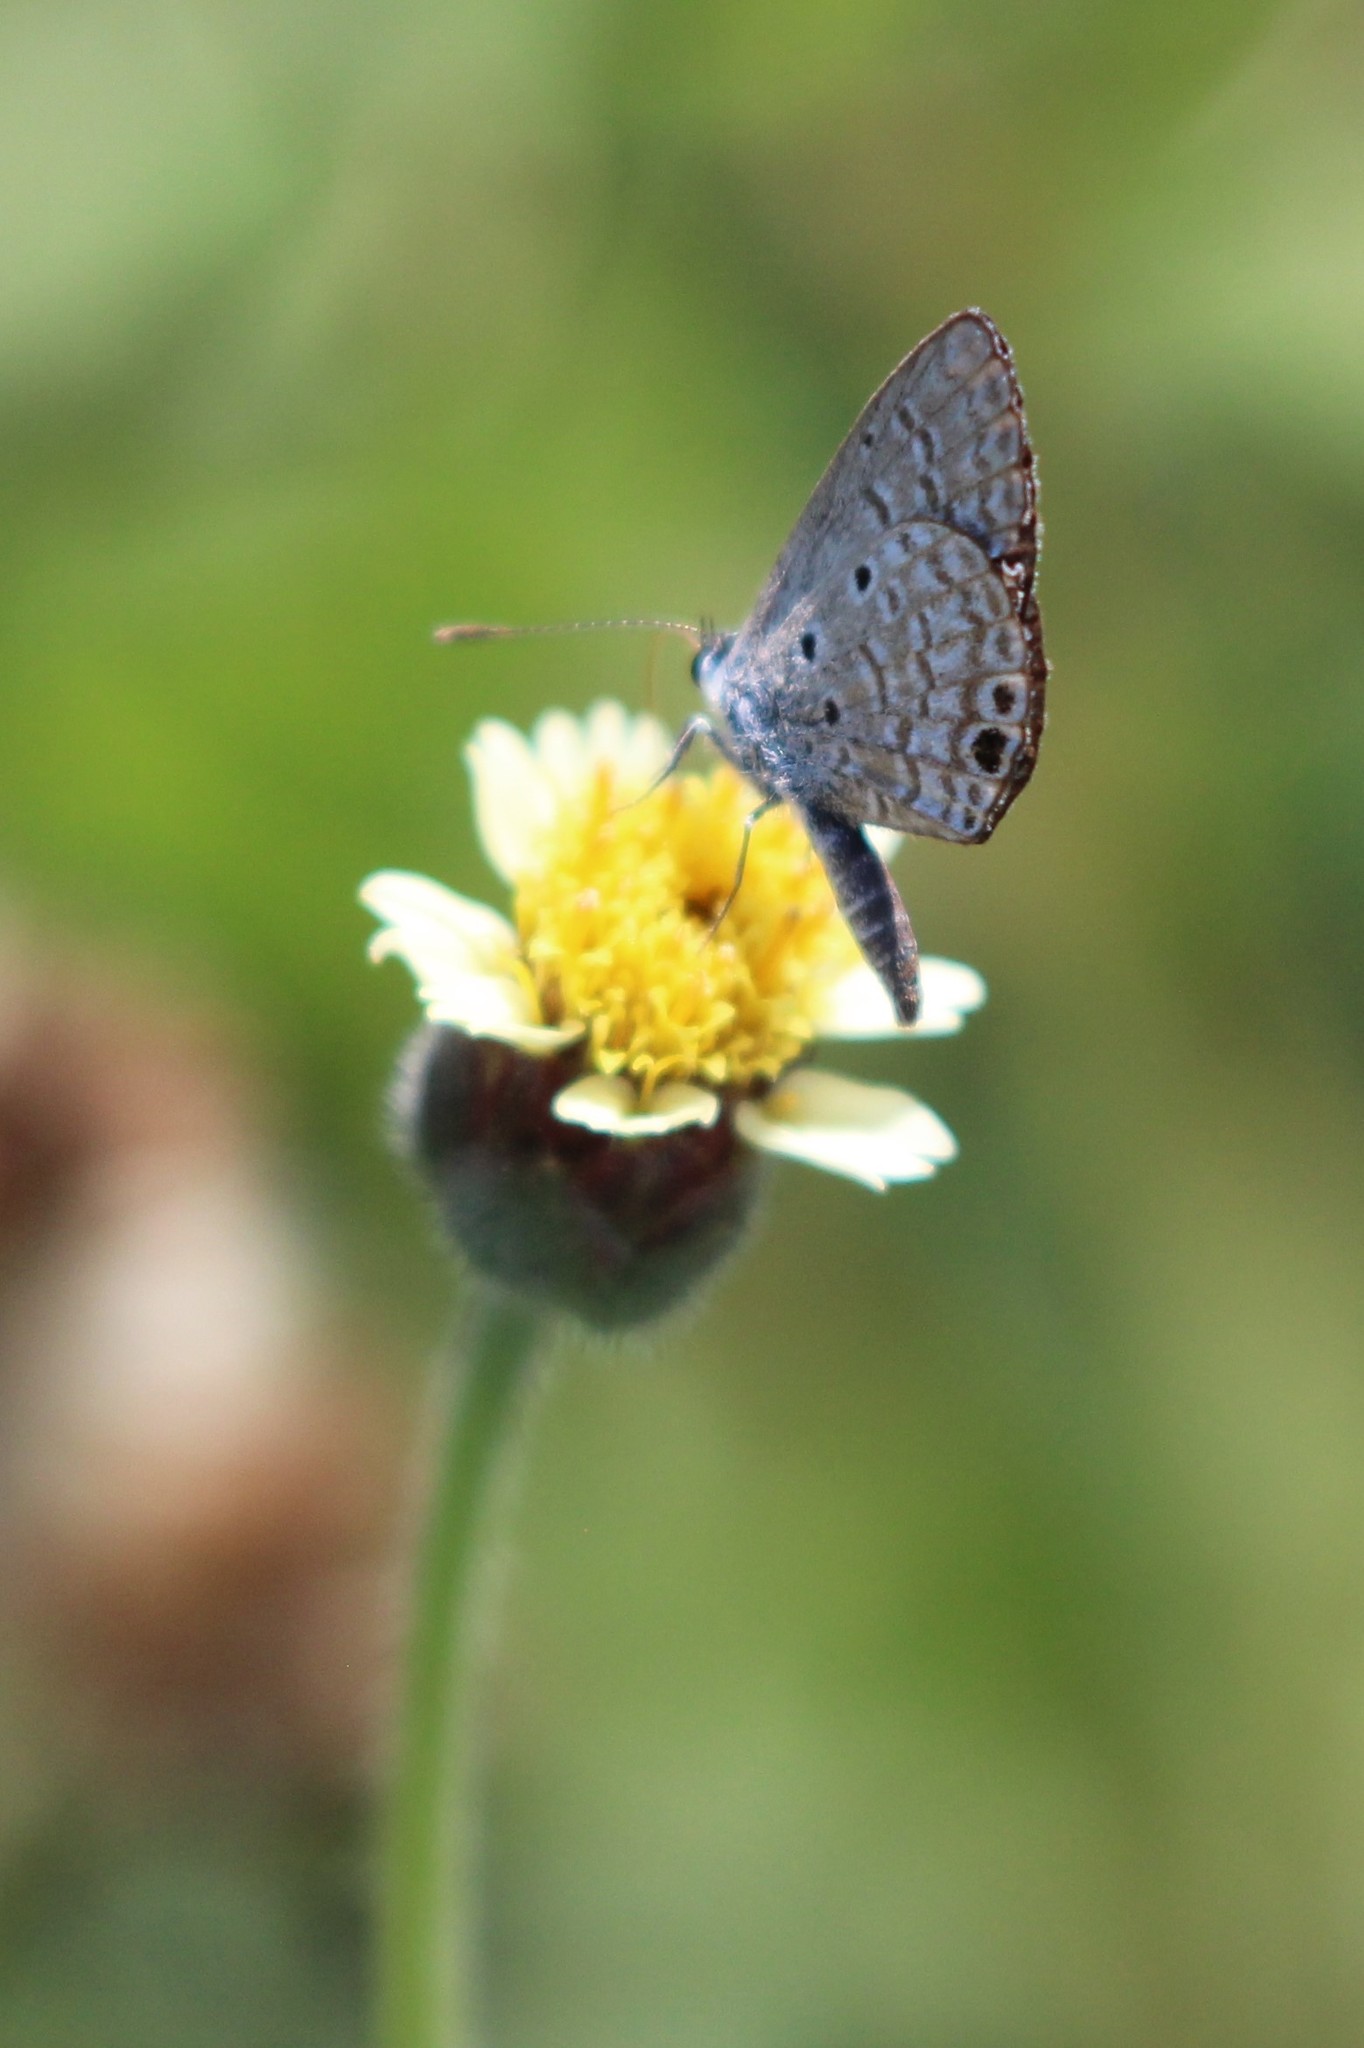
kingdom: Animalia
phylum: Arthropoda
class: Insecta
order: Lepidoptera
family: Lycaenidae
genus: Hemiargus
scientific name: Hemiargus ceraunus
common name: Ceraunus blue
